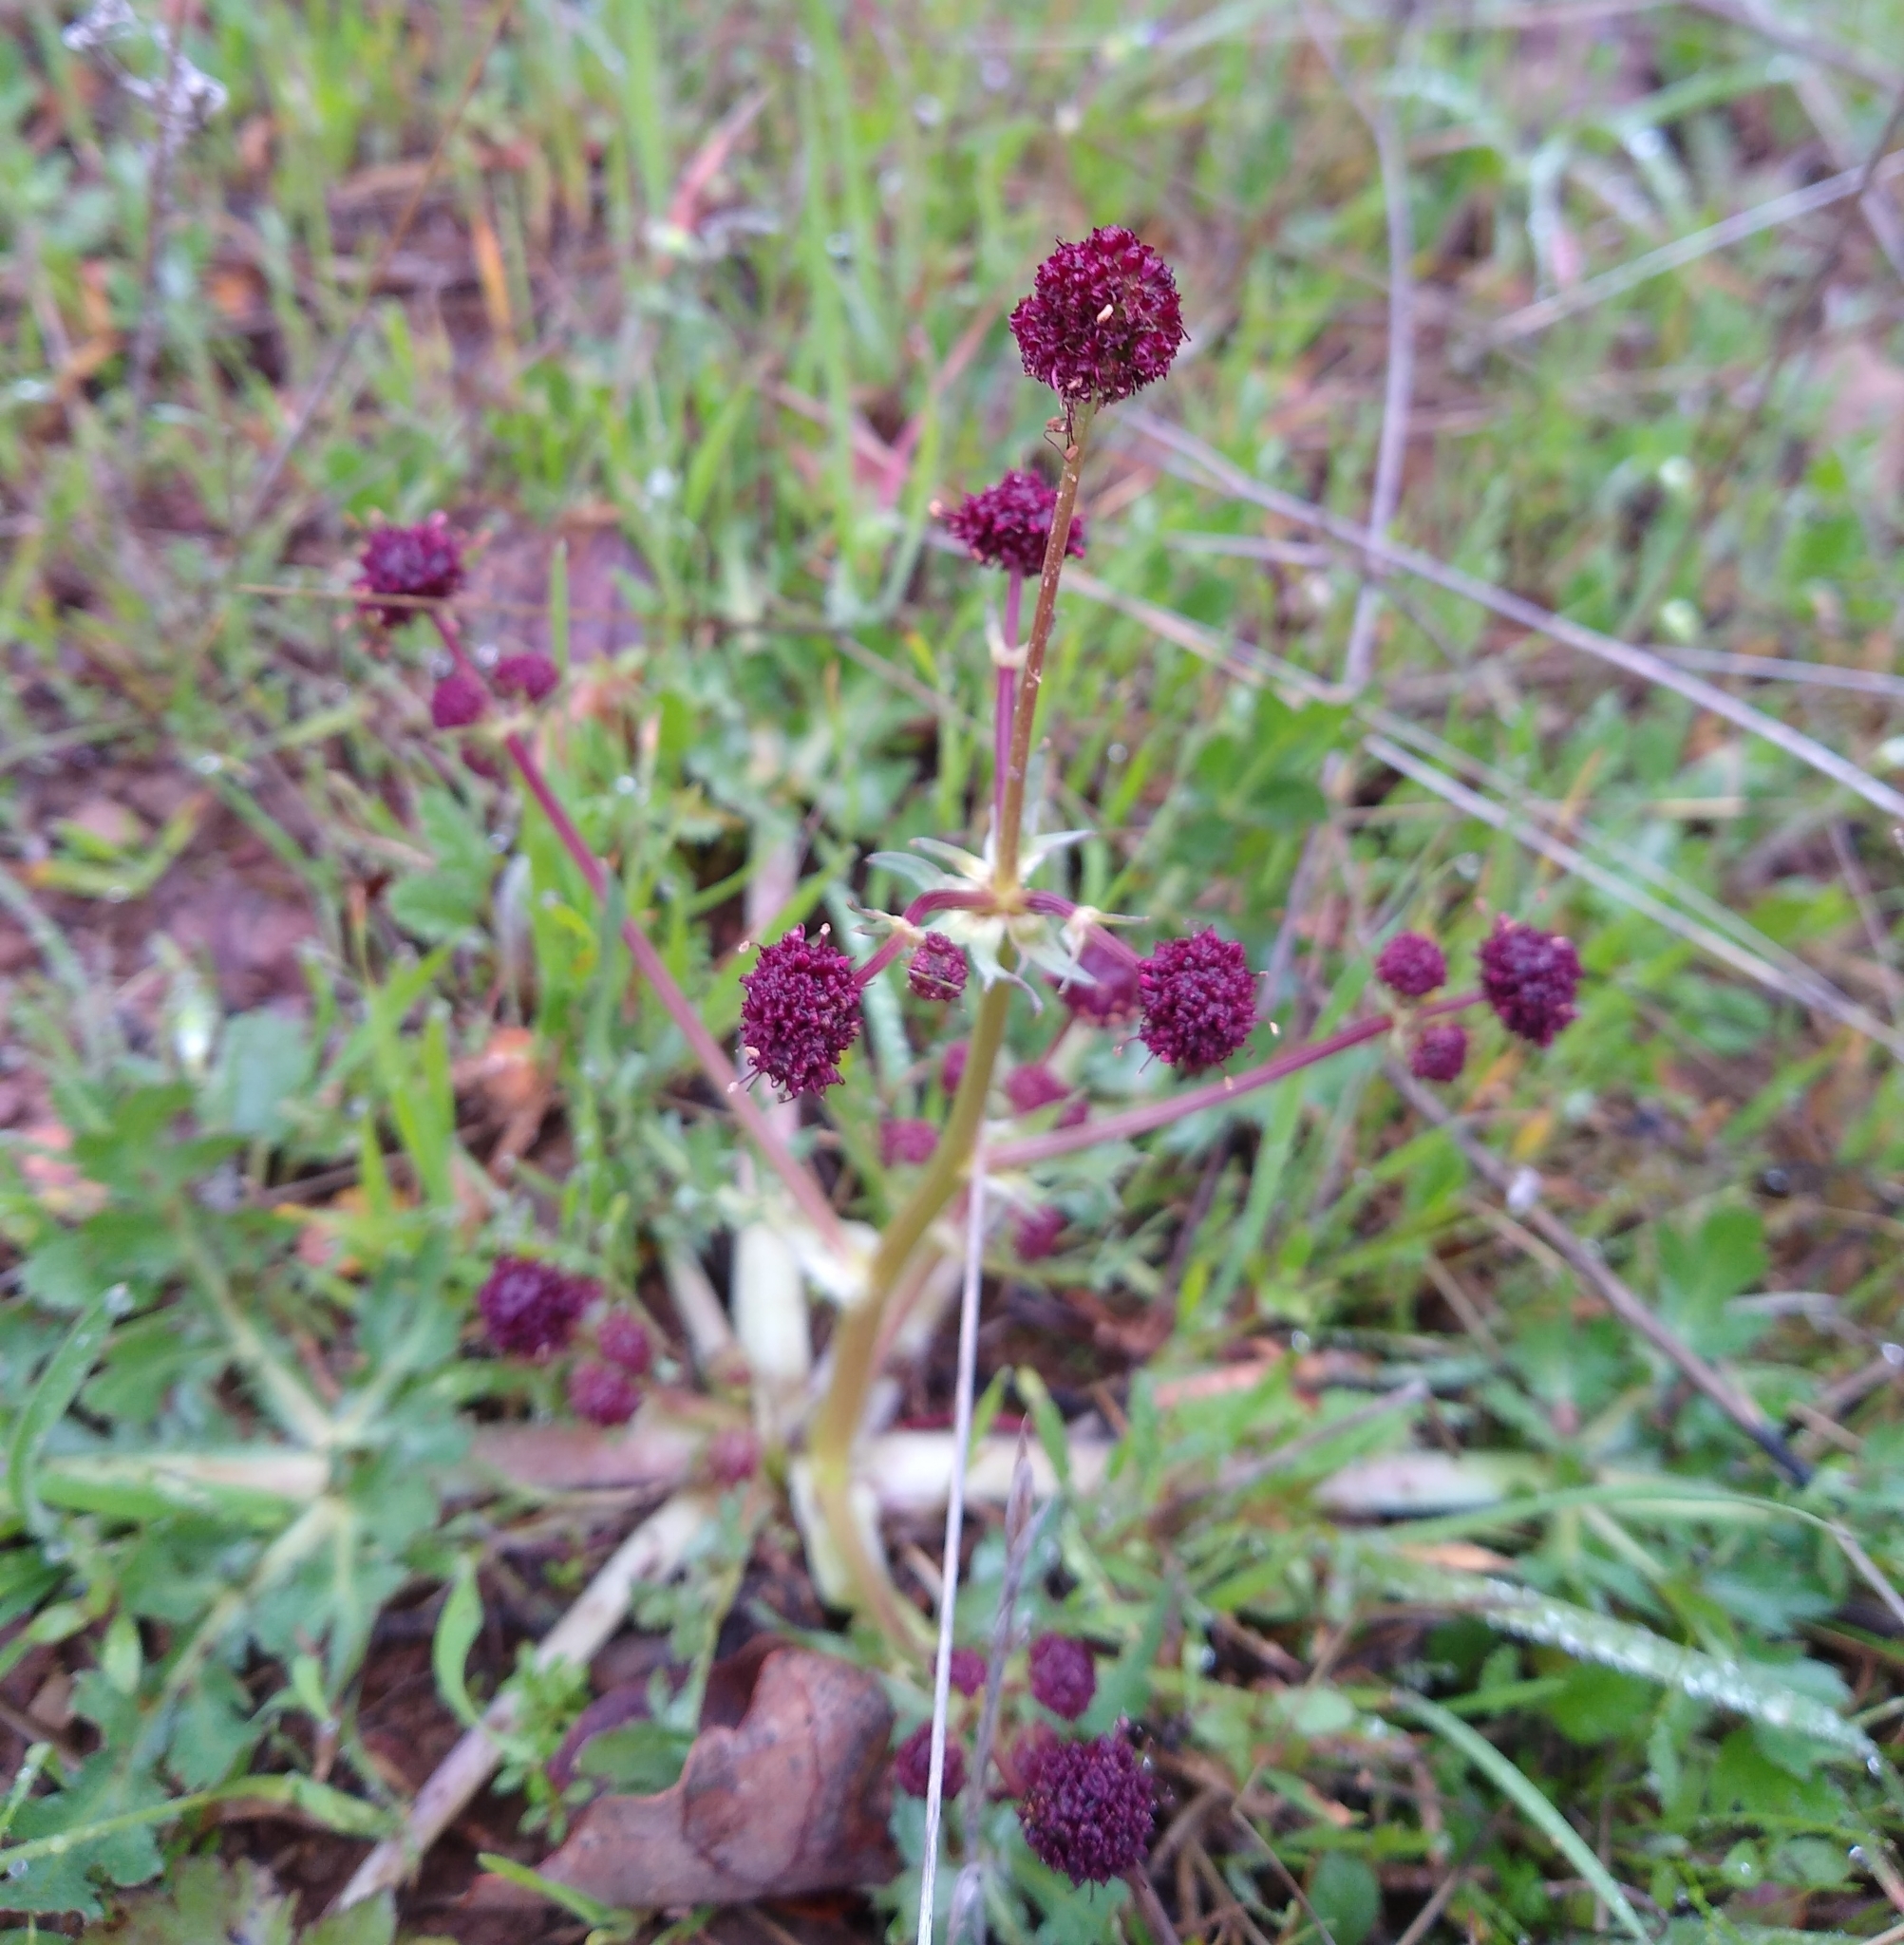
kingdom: Plantae
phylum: Tracheophyta
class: Magnoliopsida
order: Apiales
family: Apiaceae
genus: Sanicula
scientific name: Sanicula bipinnatifida
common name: Shoe-buttons
